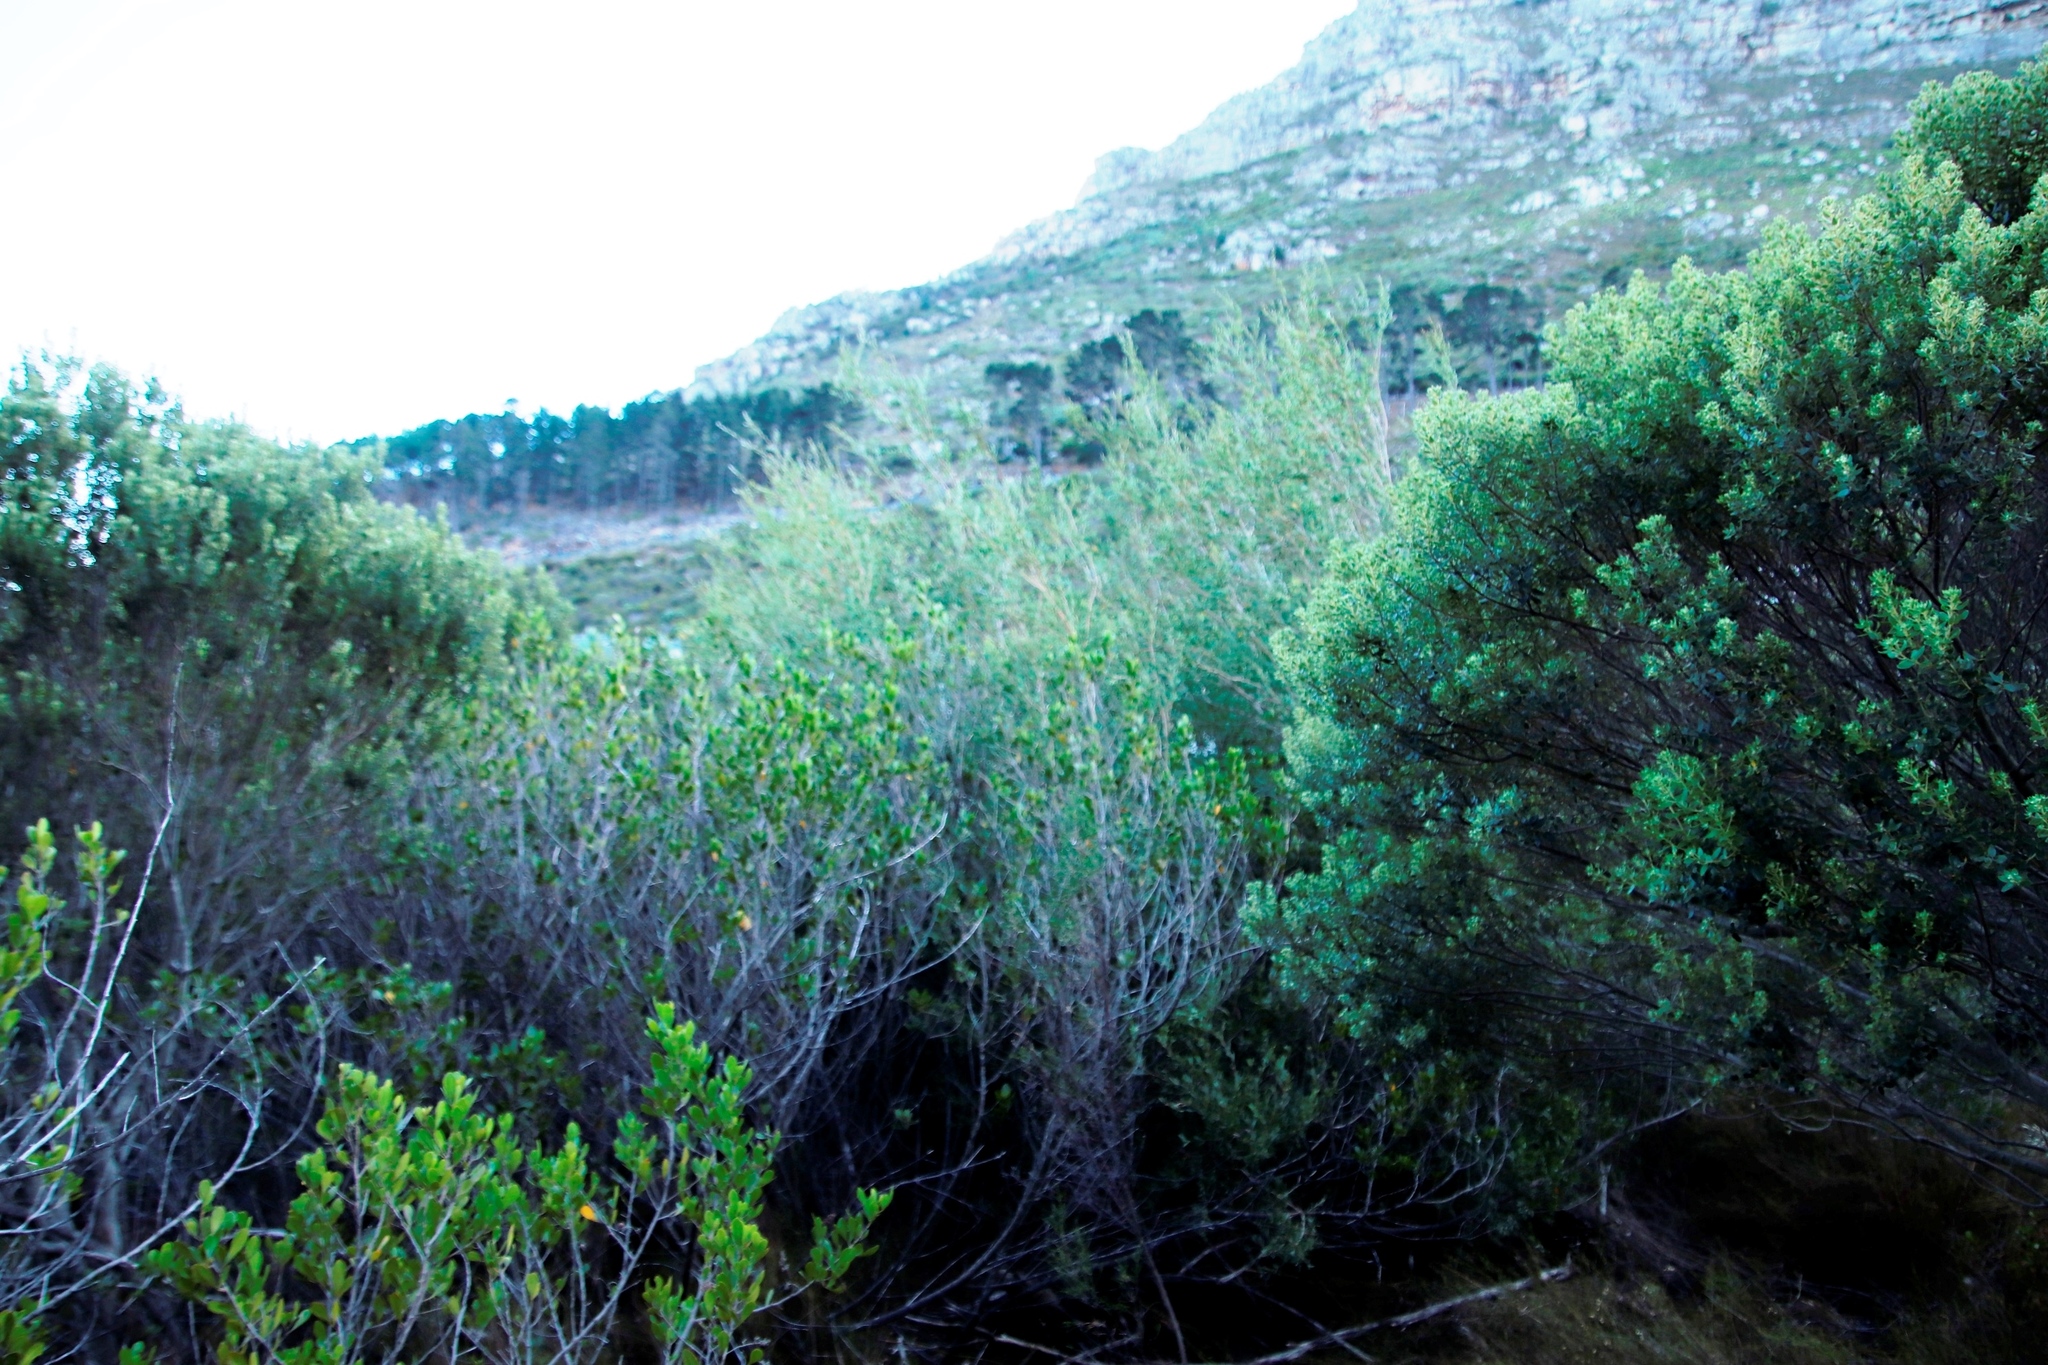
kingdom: Plantae
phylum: Tracheophyta
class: Magnoliopsida
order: Myrtales
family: Myrtaceae
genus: Leptospermum
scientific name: Leptospermum laevigatum
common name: Australian teatree
